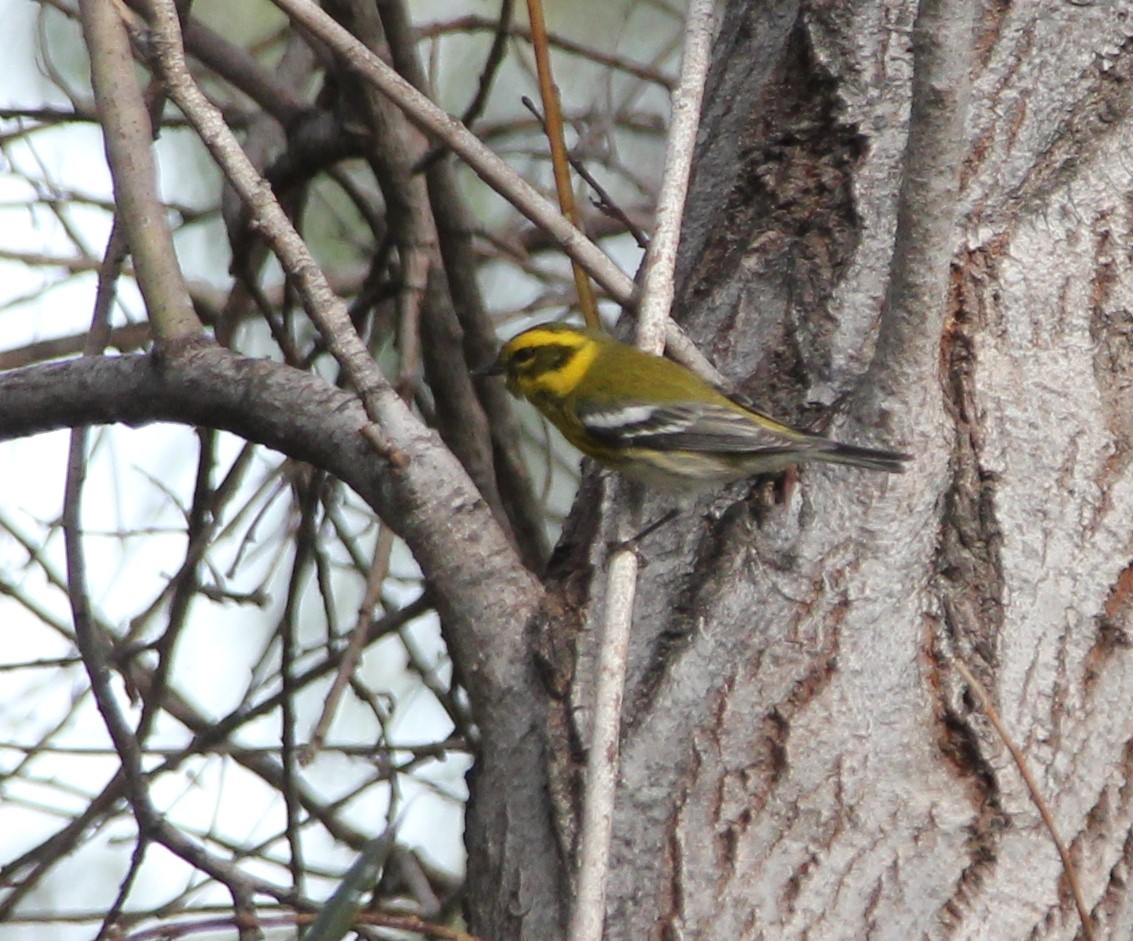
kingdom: Animalia
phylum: Chordata
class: Aves
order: Passeriformes
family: Parulidae
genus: Setophaga
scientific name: Setophaga townsendi
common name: Townsend's warbler
